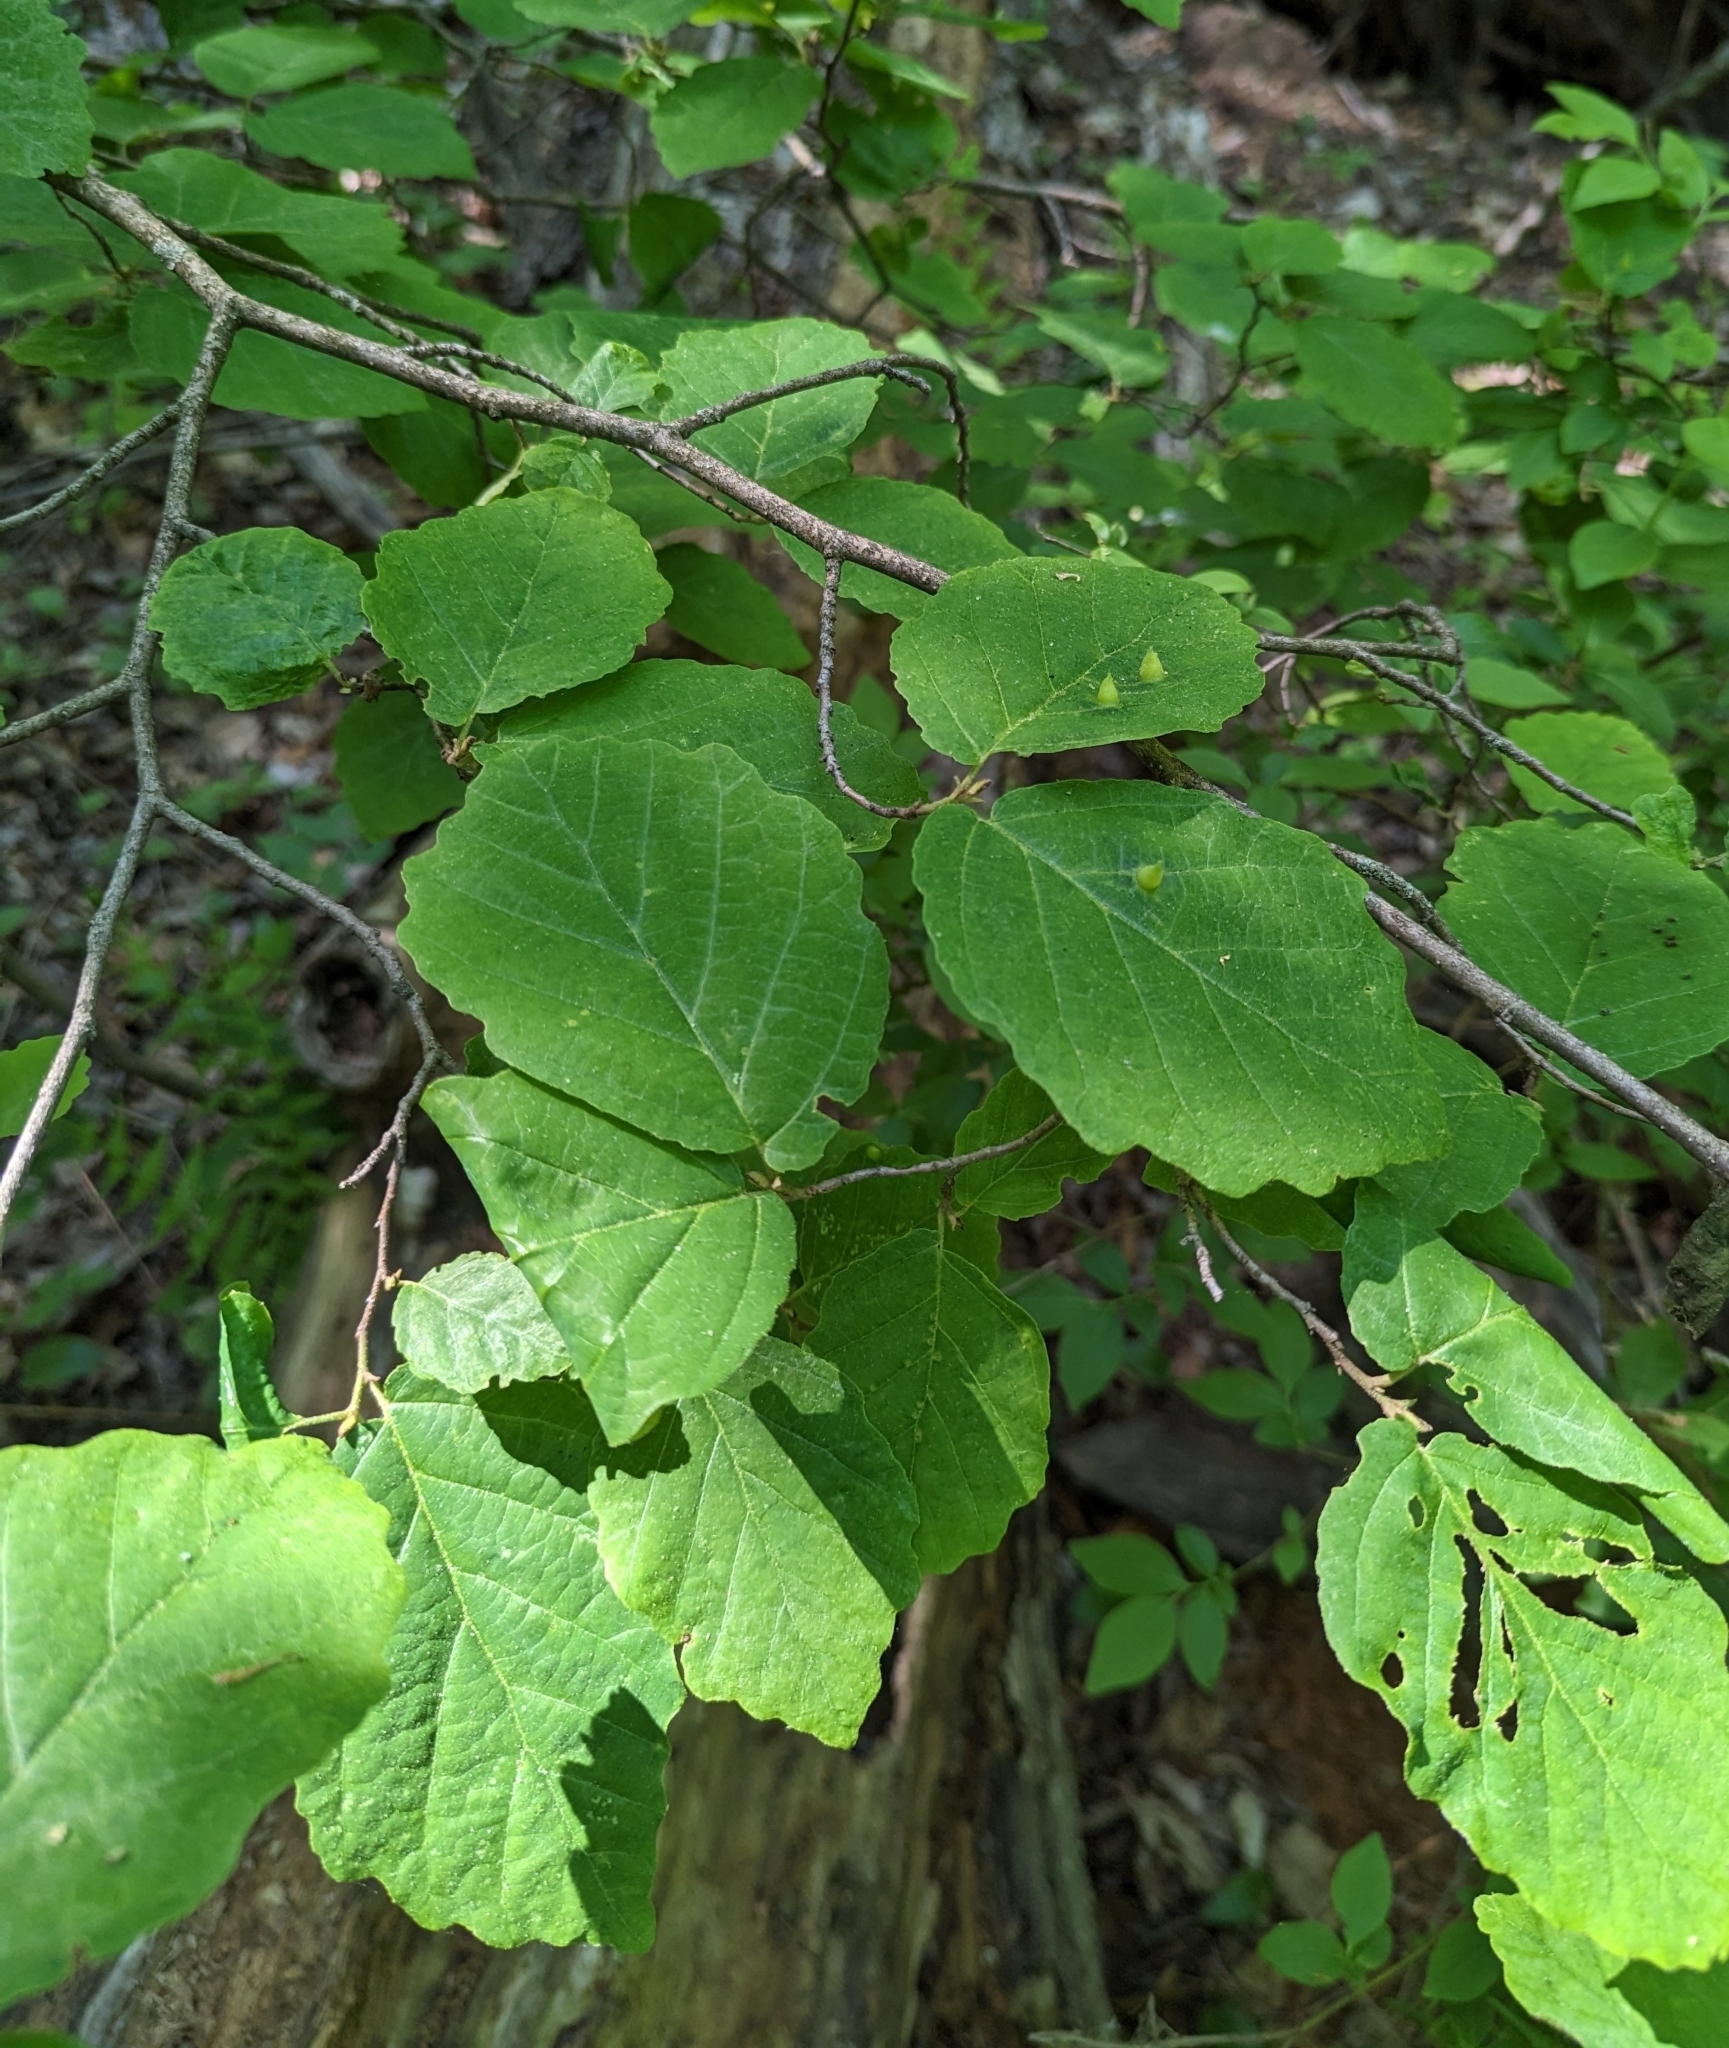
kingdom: Plantae
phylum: Tracheophyta
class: Magnoliopsida
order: Saxifragales
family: Hamamelidaceae
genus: Hamamelis
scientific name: Hamamelis virginiana
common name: Witch-hazel
